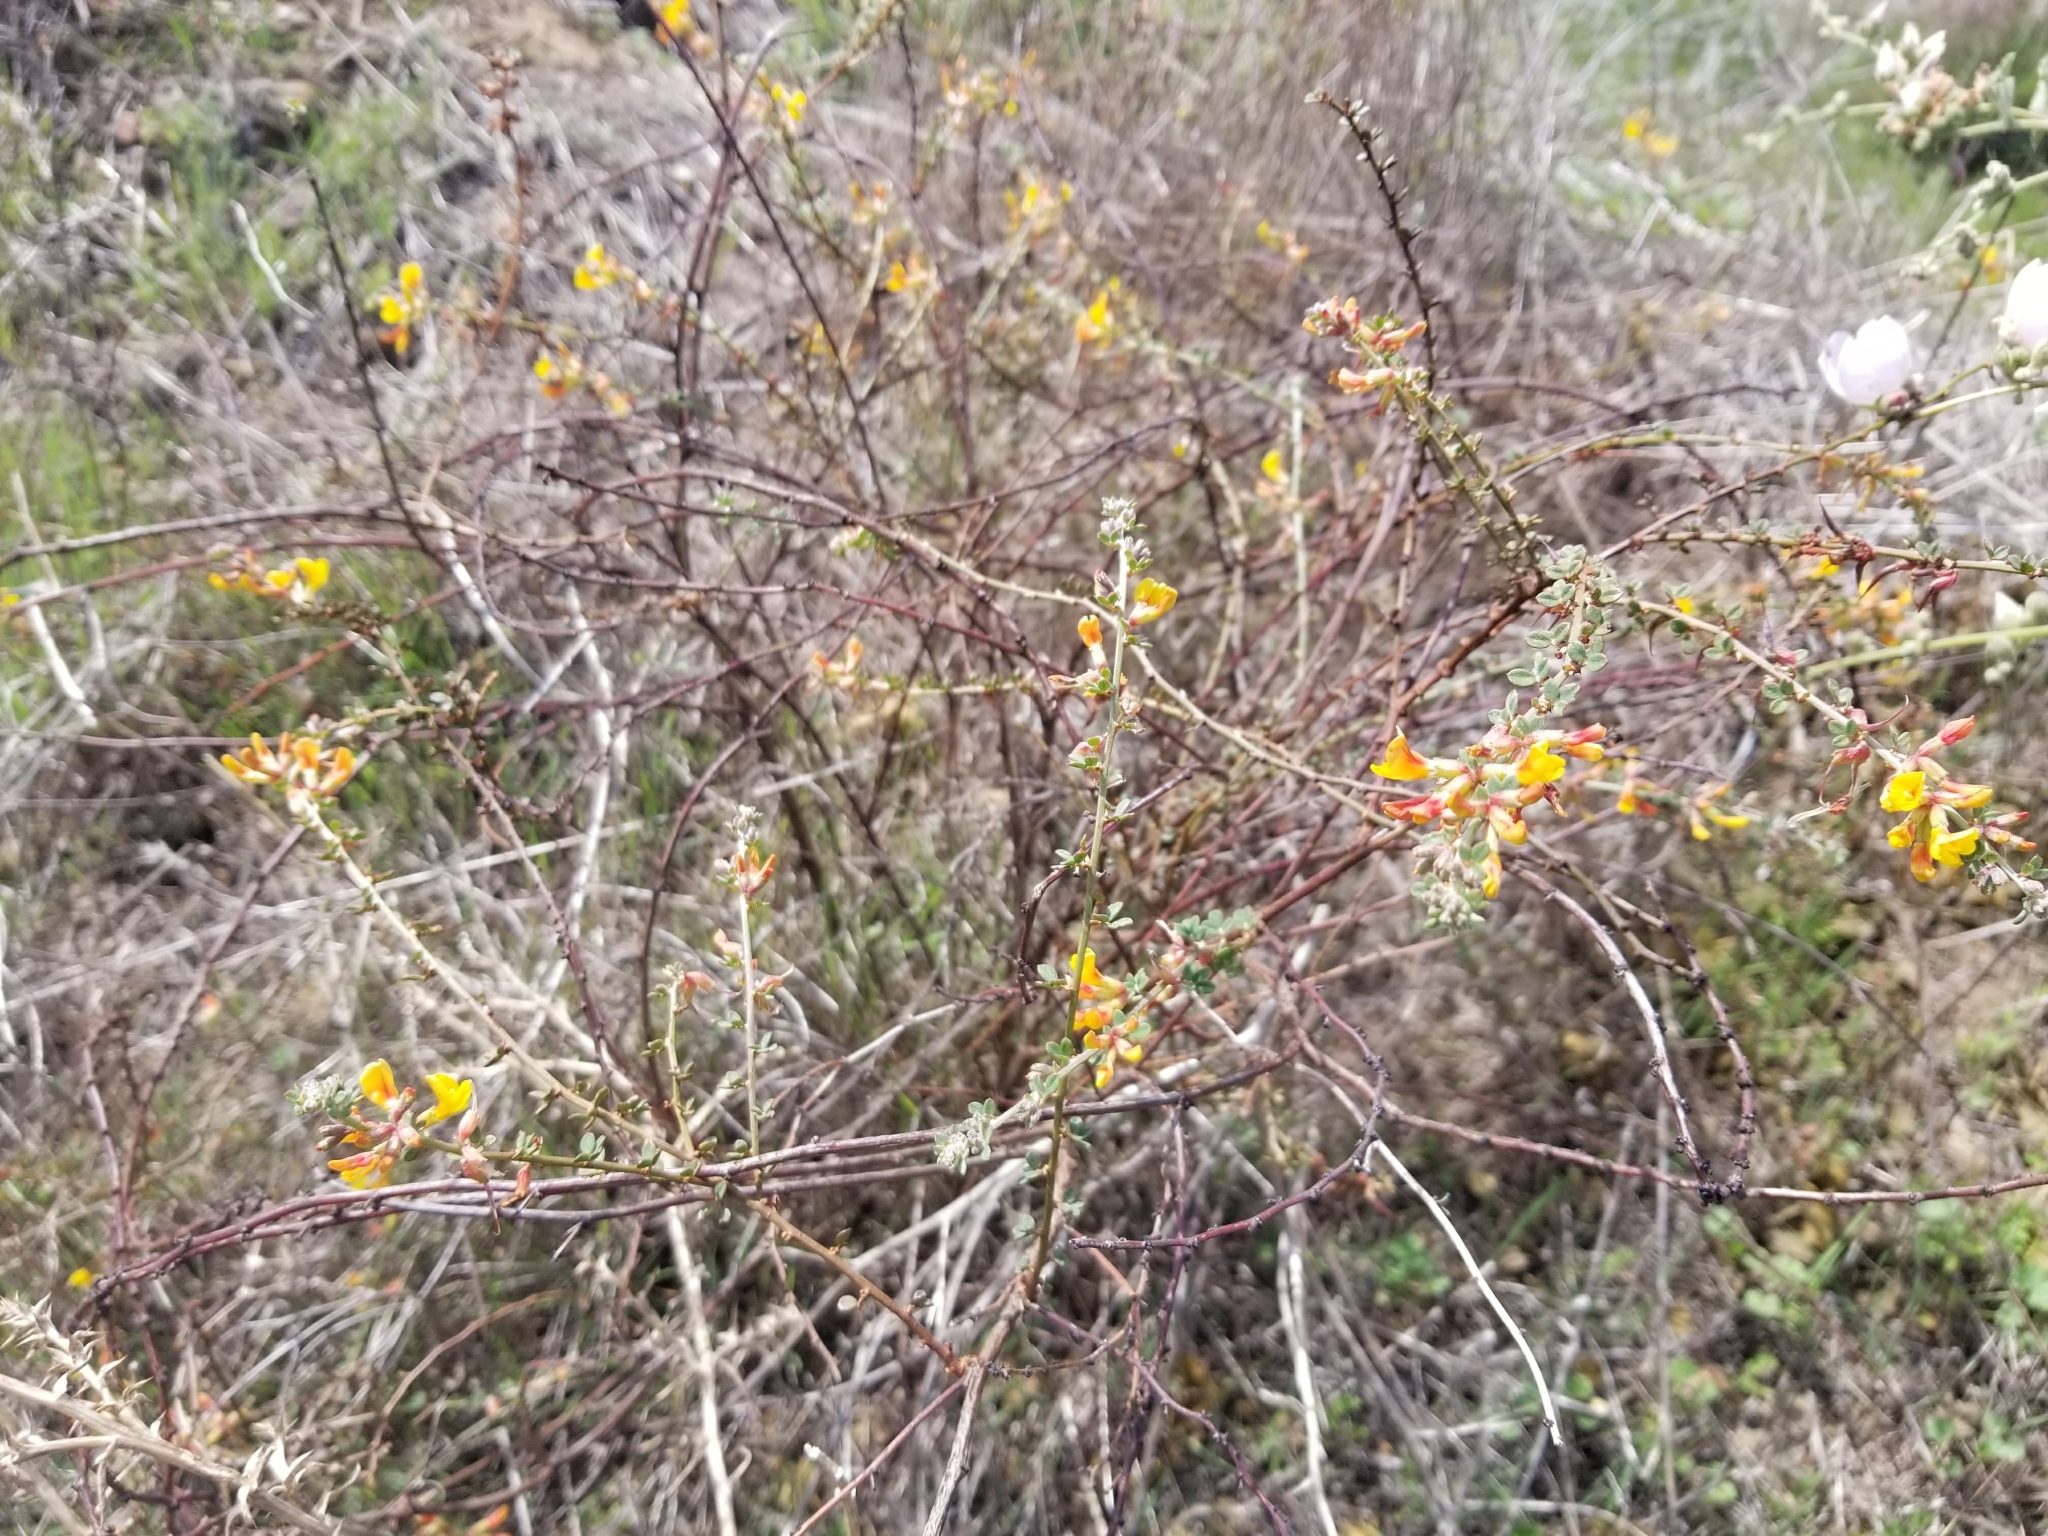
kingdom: Plantae
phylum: Tracheophyta
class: Magnoliopsida
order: Fabales
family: Fabaceae
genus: Acmispon
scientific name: Acmispon glaber
